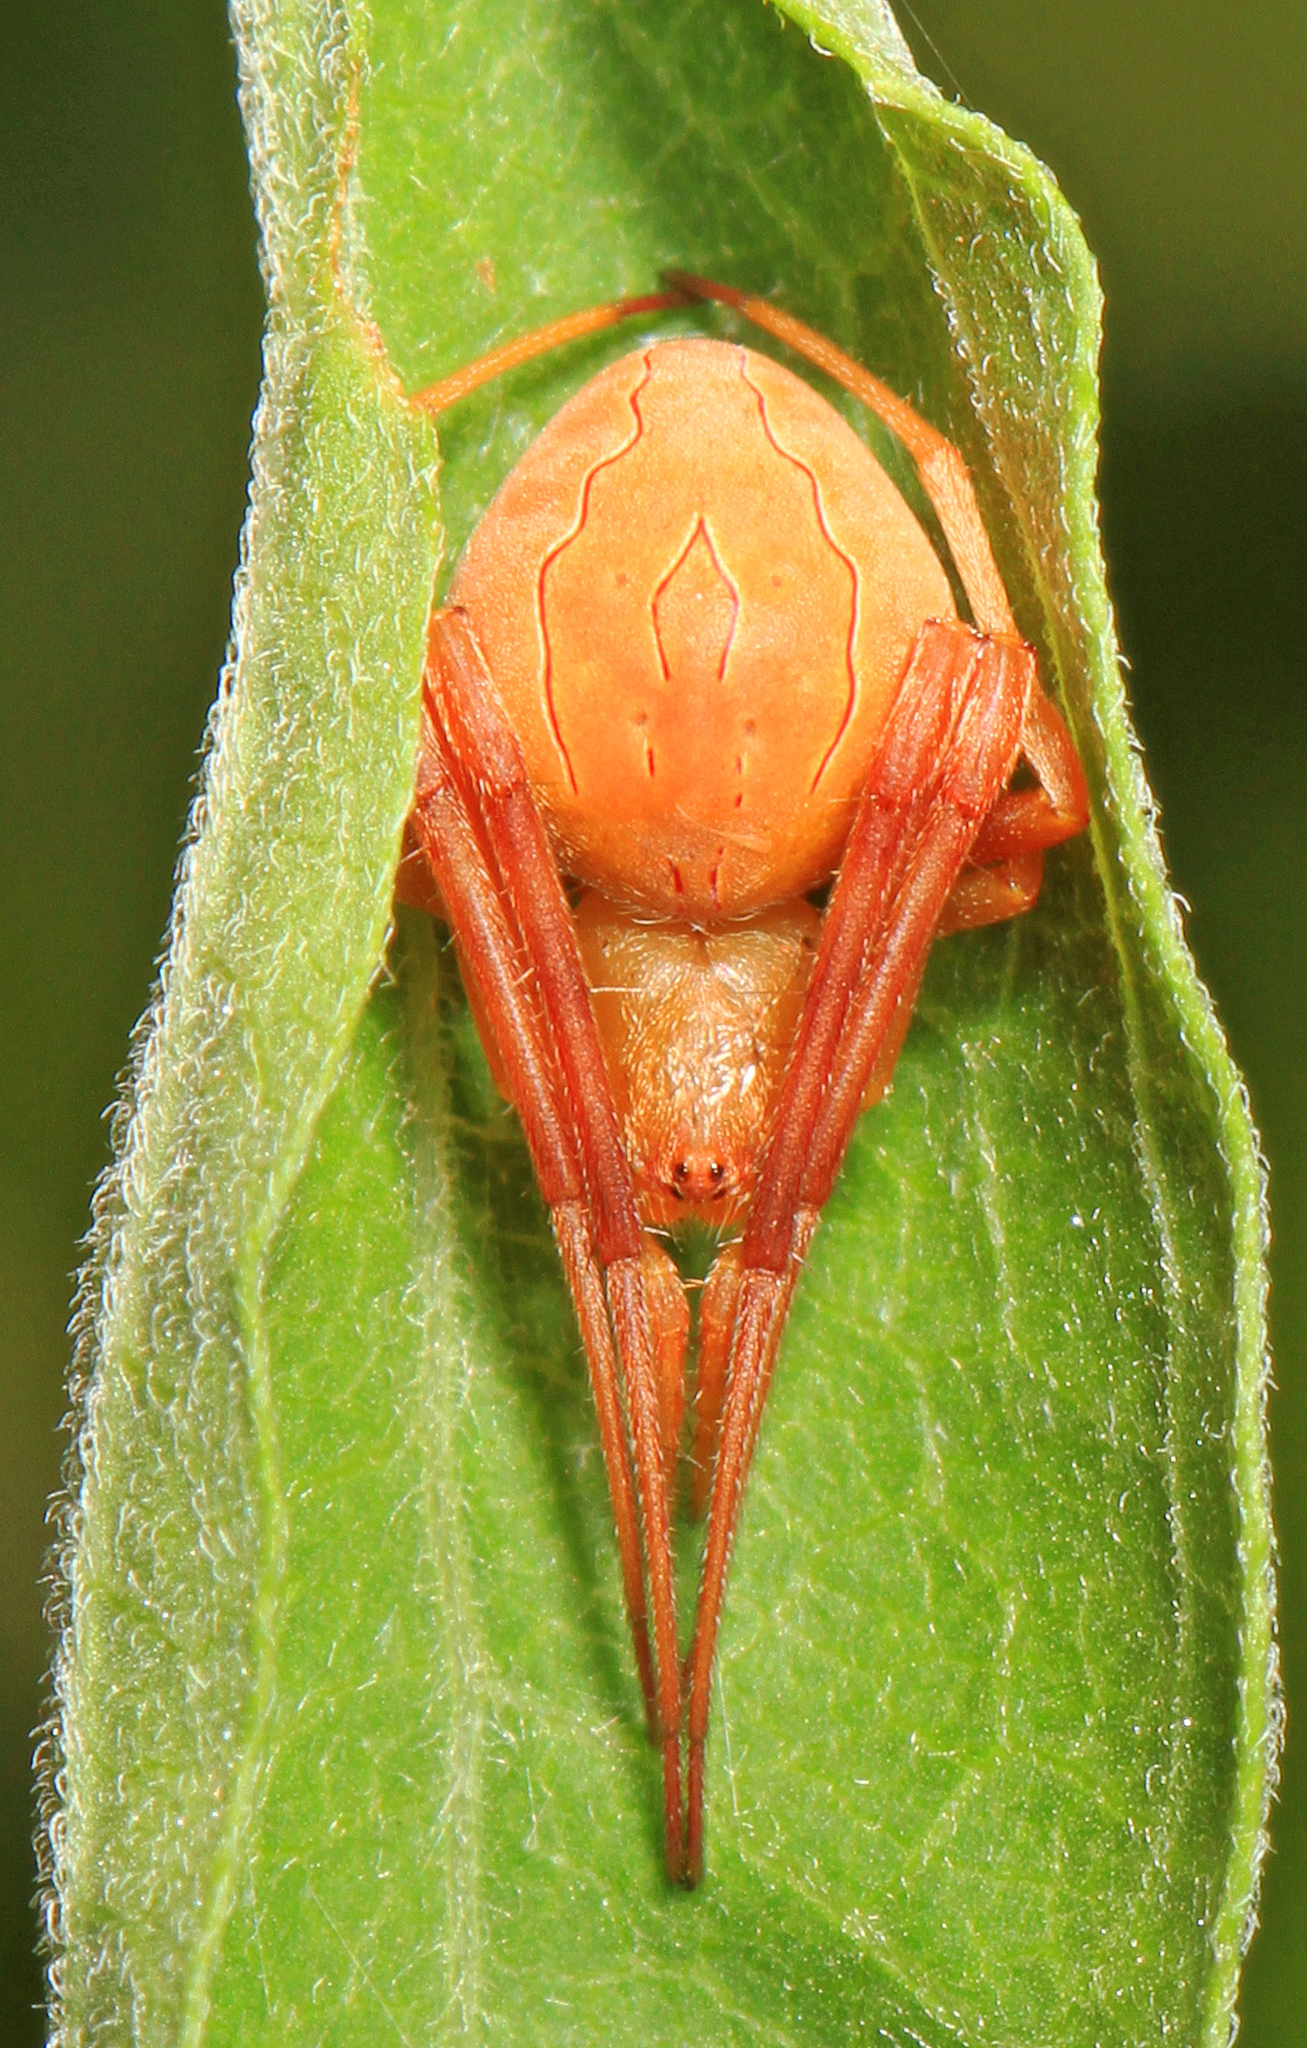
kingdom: Animalia
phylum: Arthropoda
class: Arachnida
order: Araneae
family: Araneidae
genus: Acacesia
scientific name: Acacesia hamata
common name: Orb weavers
